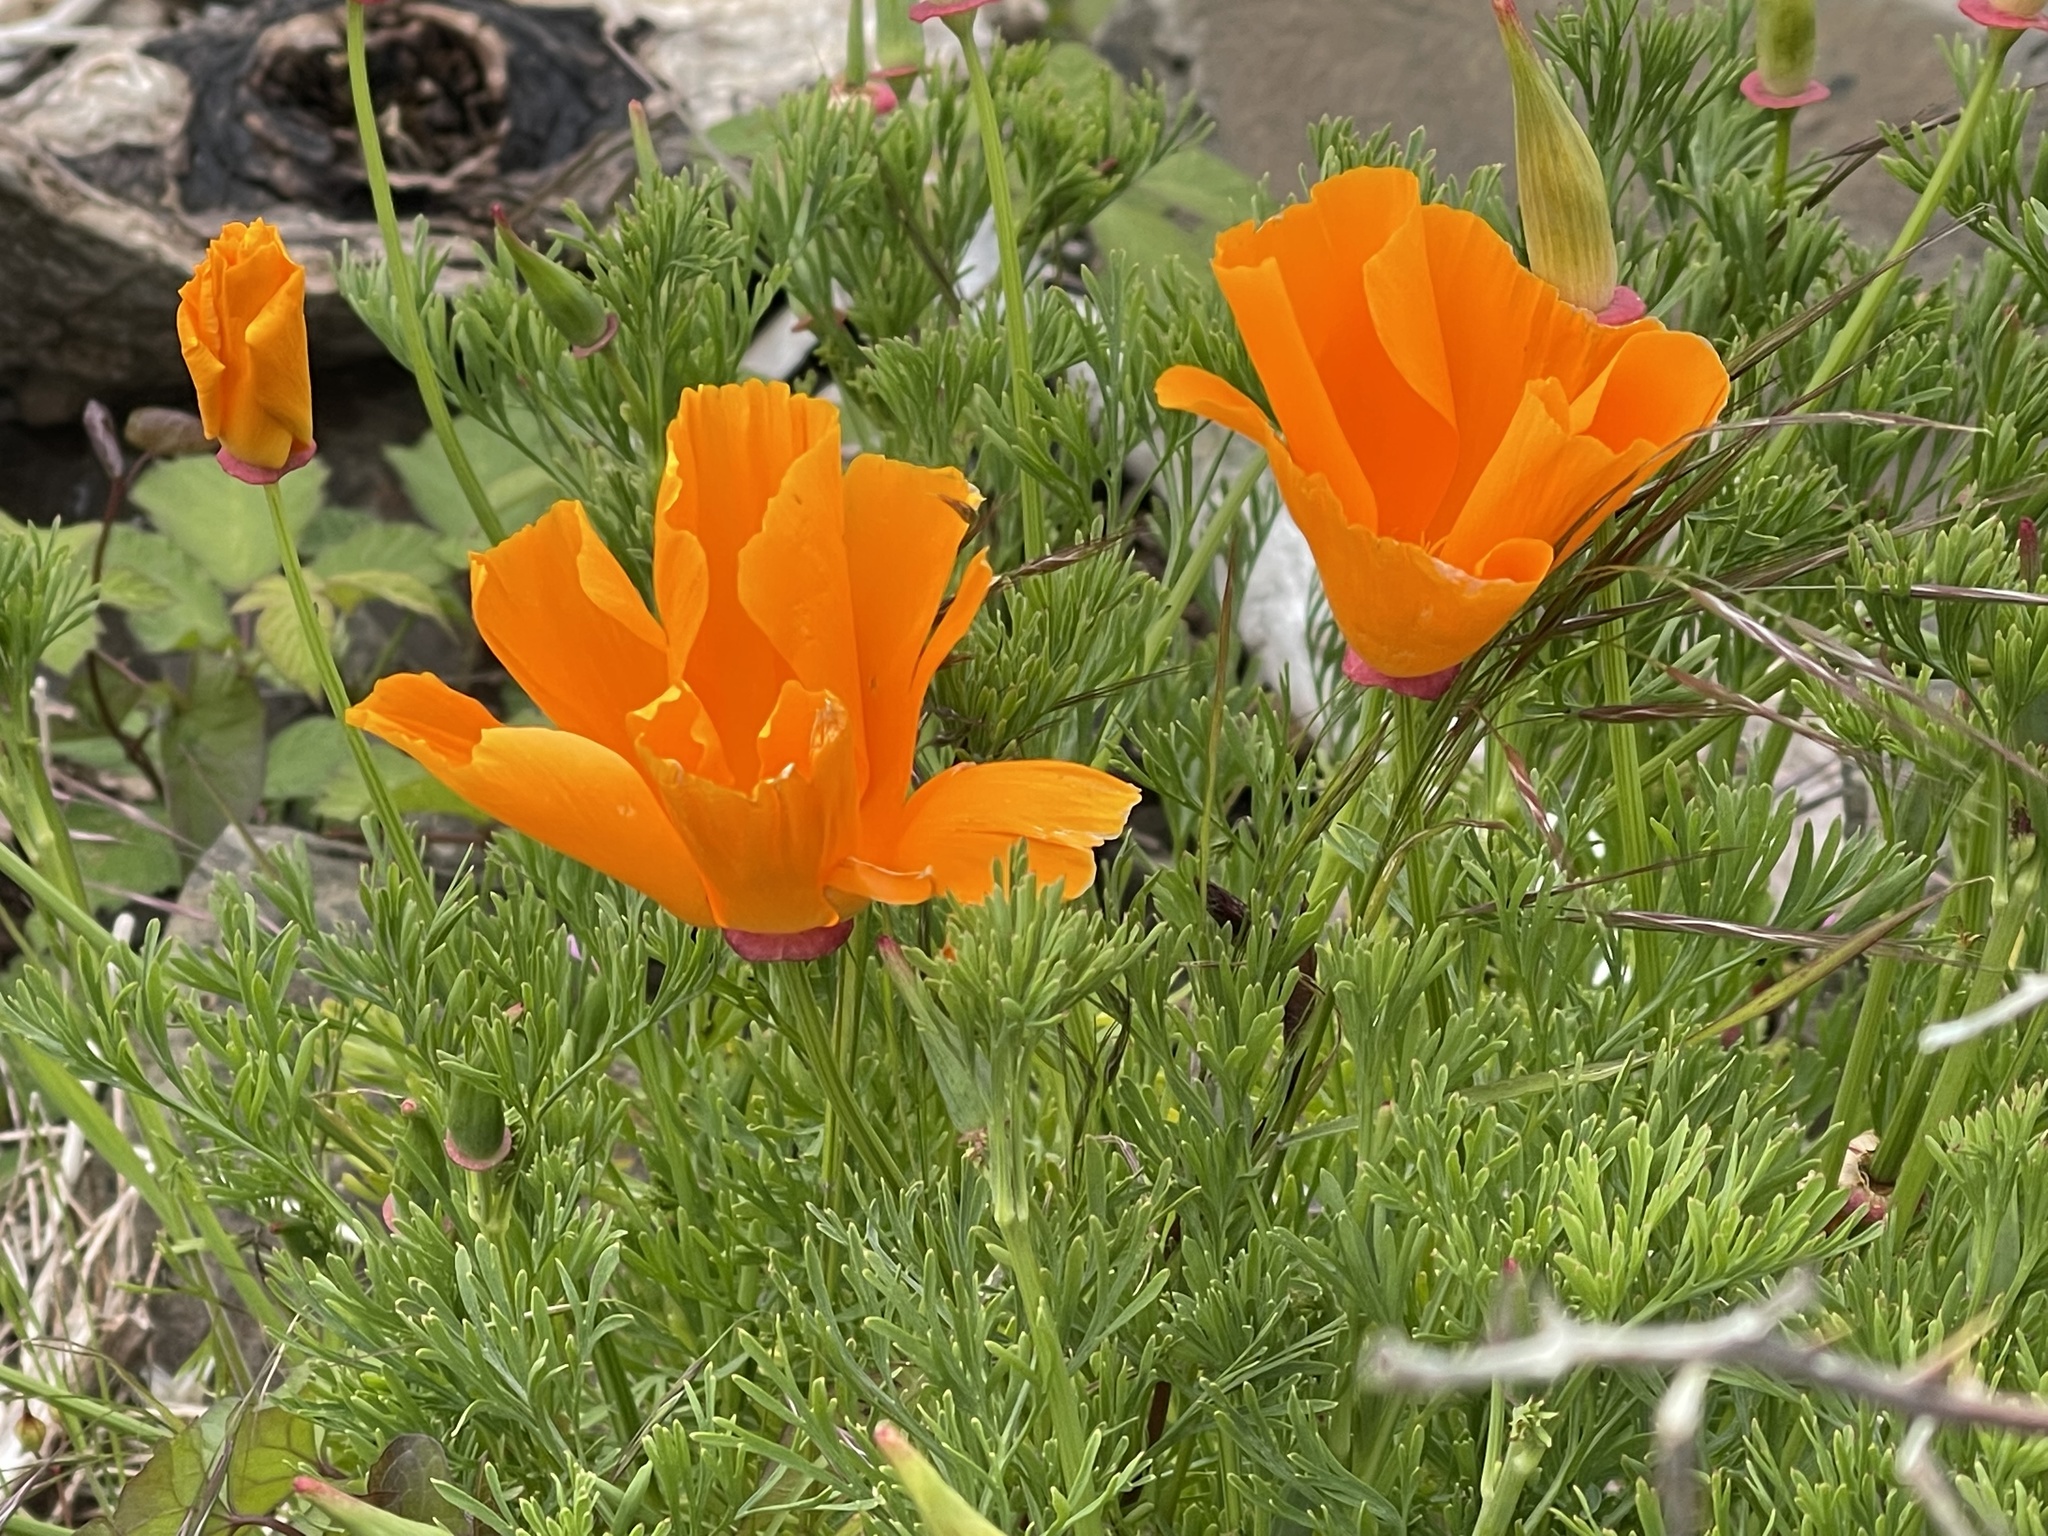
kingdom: Plantae
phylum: Tracheophyta
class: Magnoliopsida
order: Ranunculales
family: Papaveraceae
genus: Eschscholzia
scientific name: Eschscholzia californica
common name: California poppy
